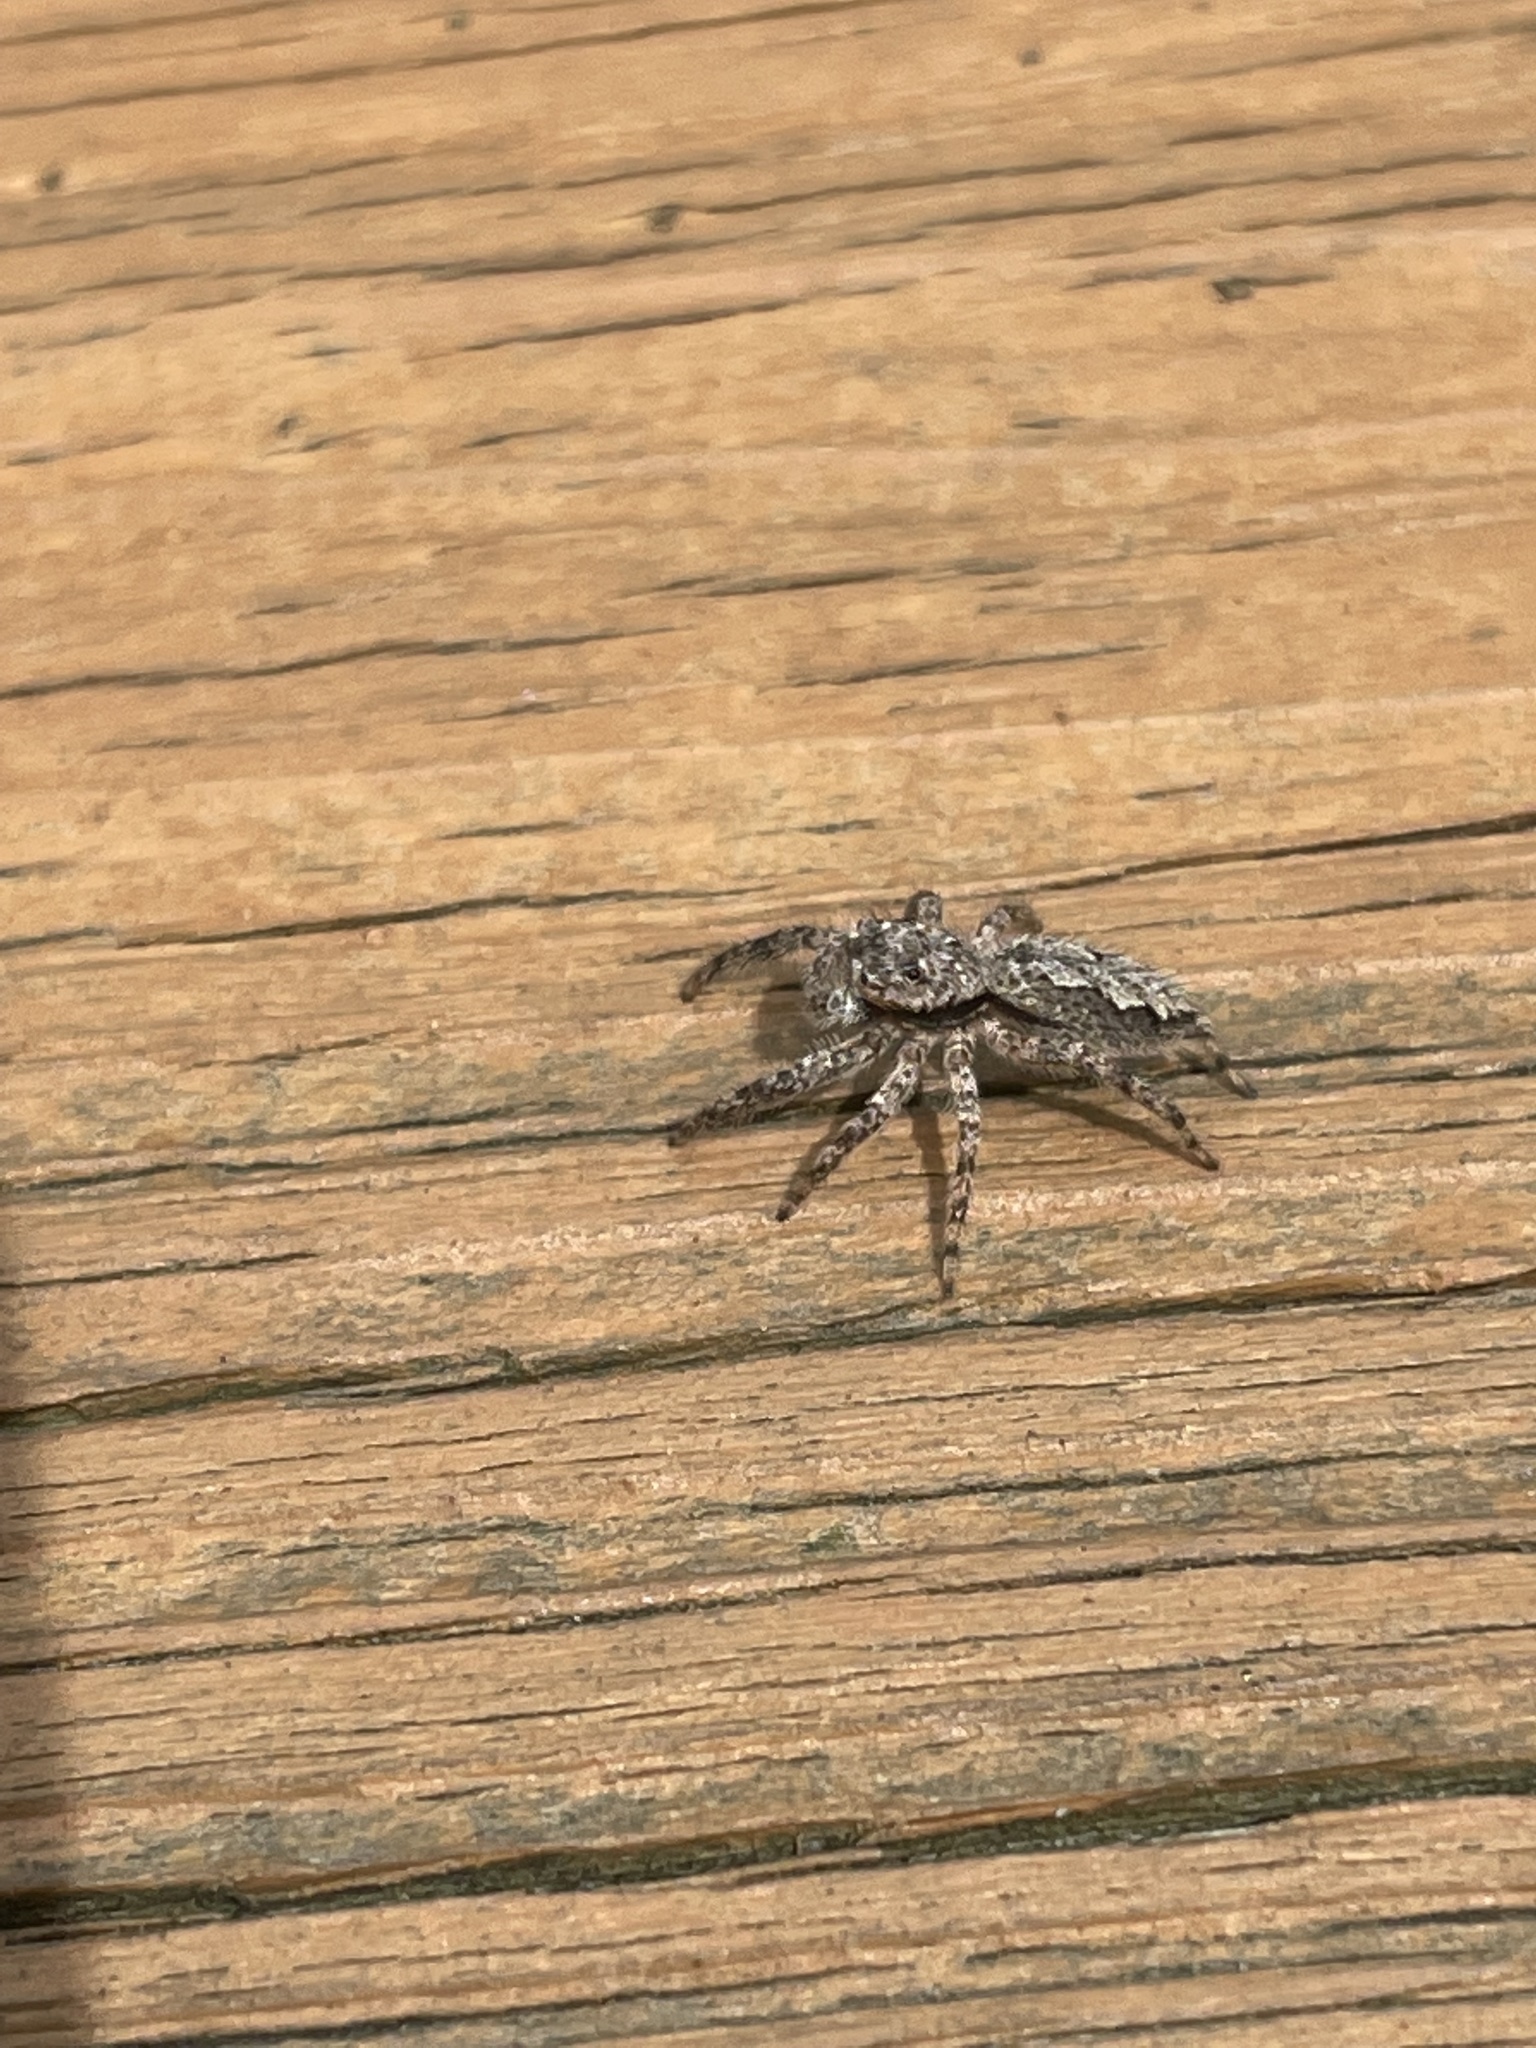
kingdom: Animalia
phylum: Arthropoda
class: Arachnida
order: Araneae
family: Salticidae
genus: Platycryptus
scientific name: Platycryptus undatus
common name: Tan jumping spider
